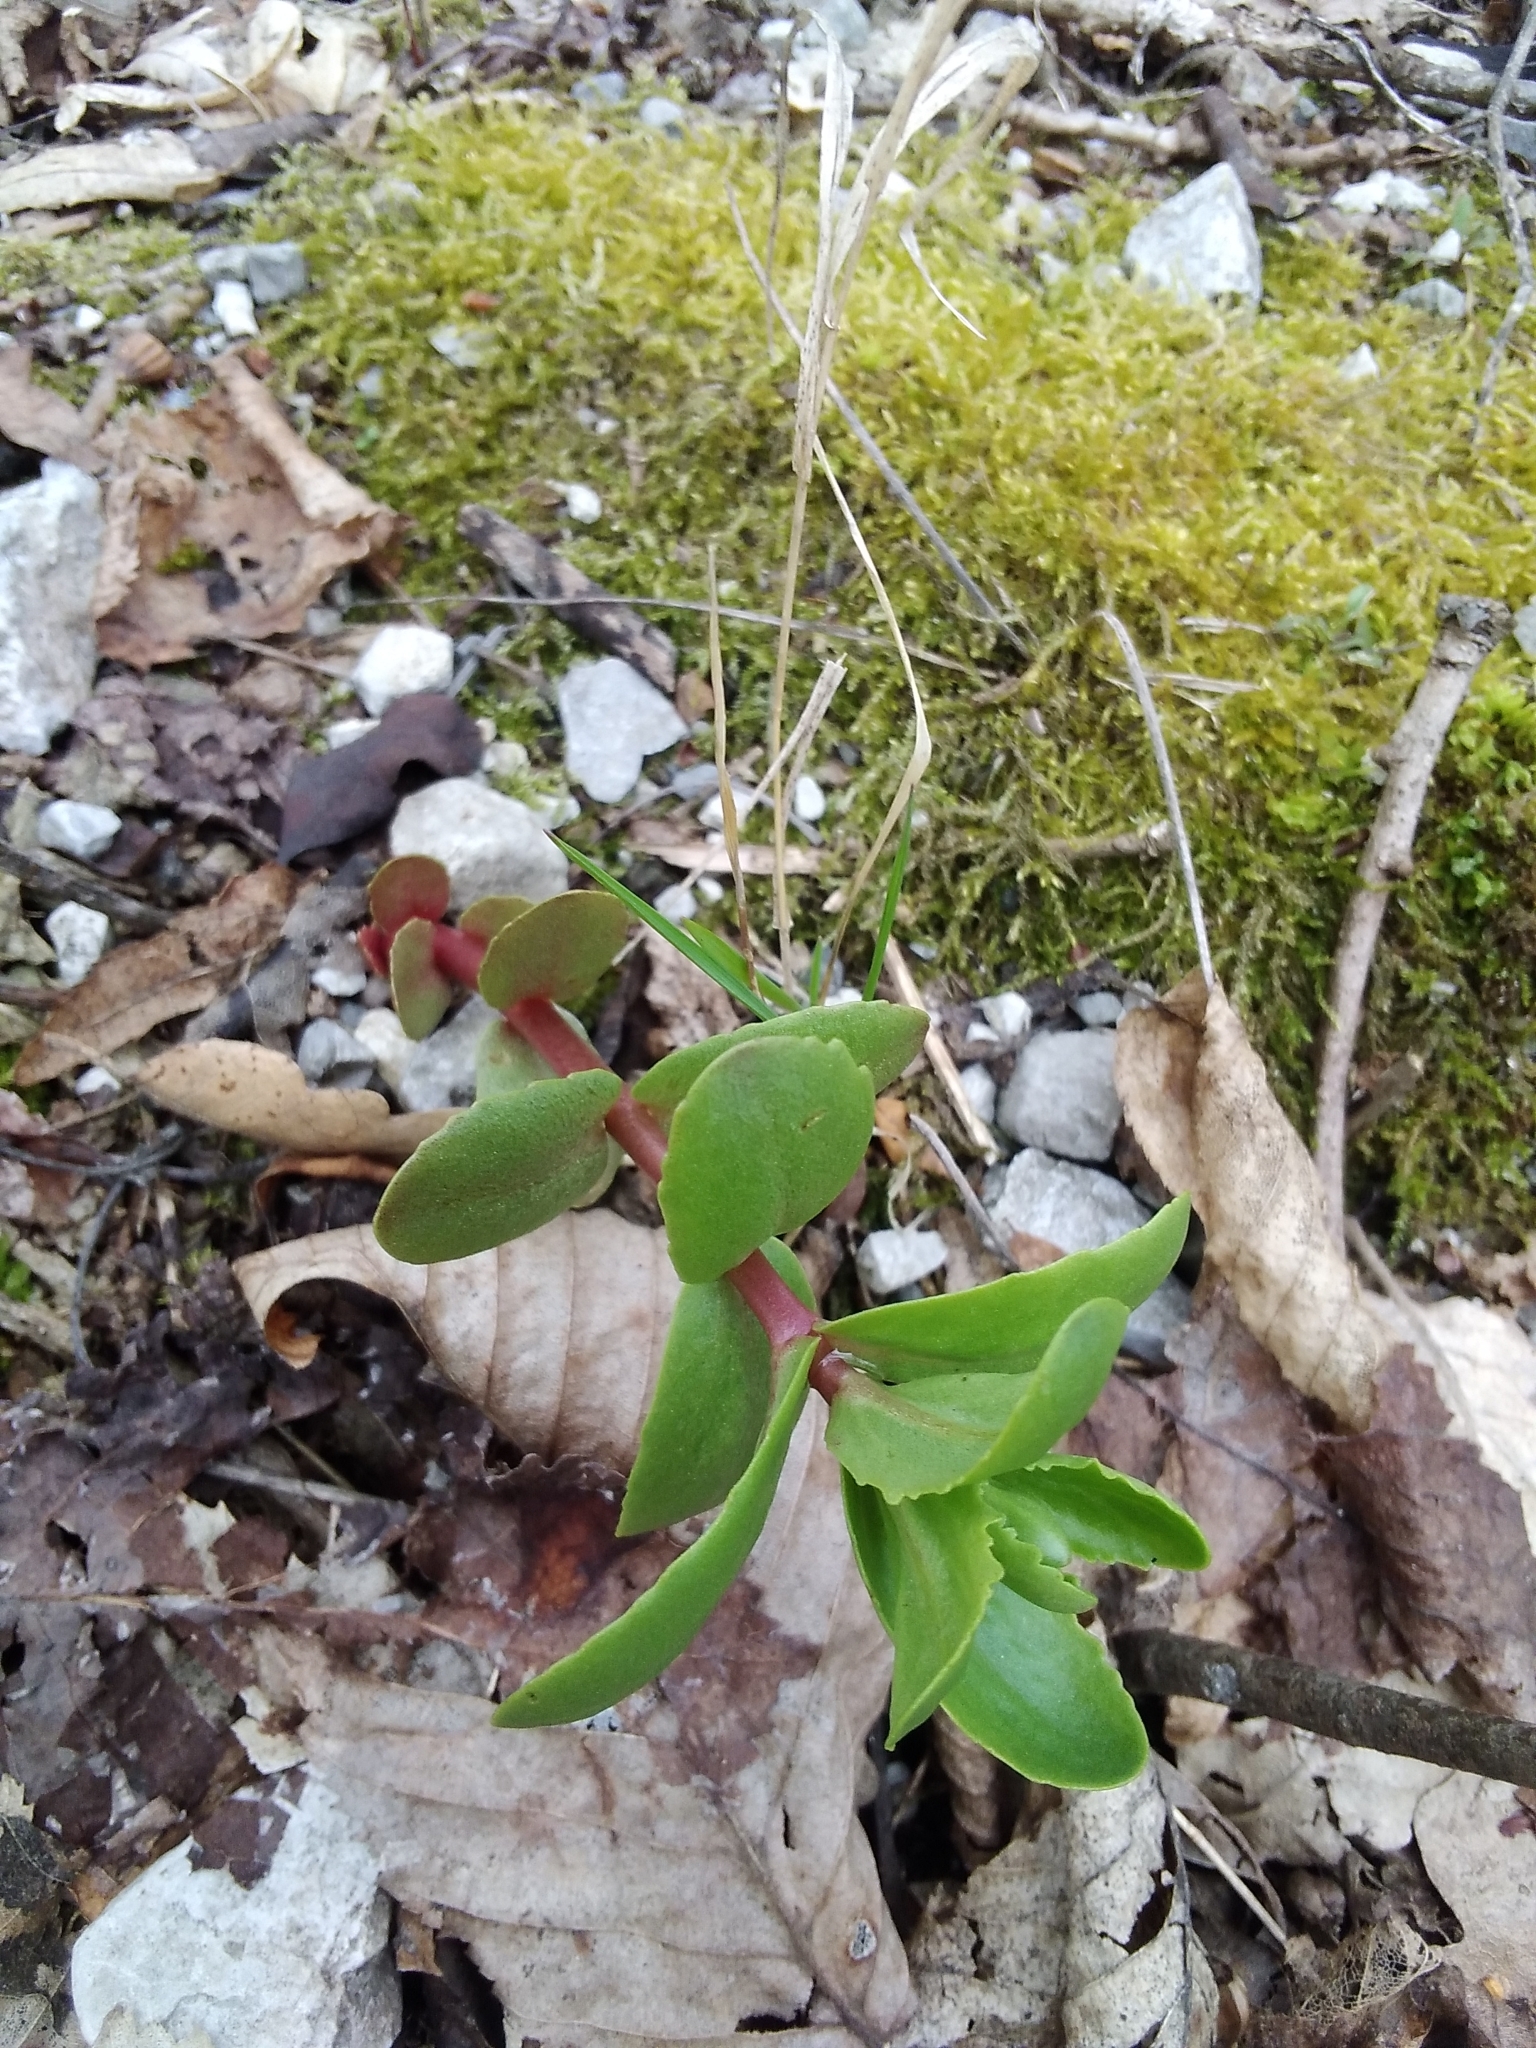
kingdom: Plantae
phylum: Tracheophyta
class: Magnoliopsida
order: Saxifragales
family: Crassulaceae
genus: Hylotelephium
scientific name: Hylotelephium maximum
